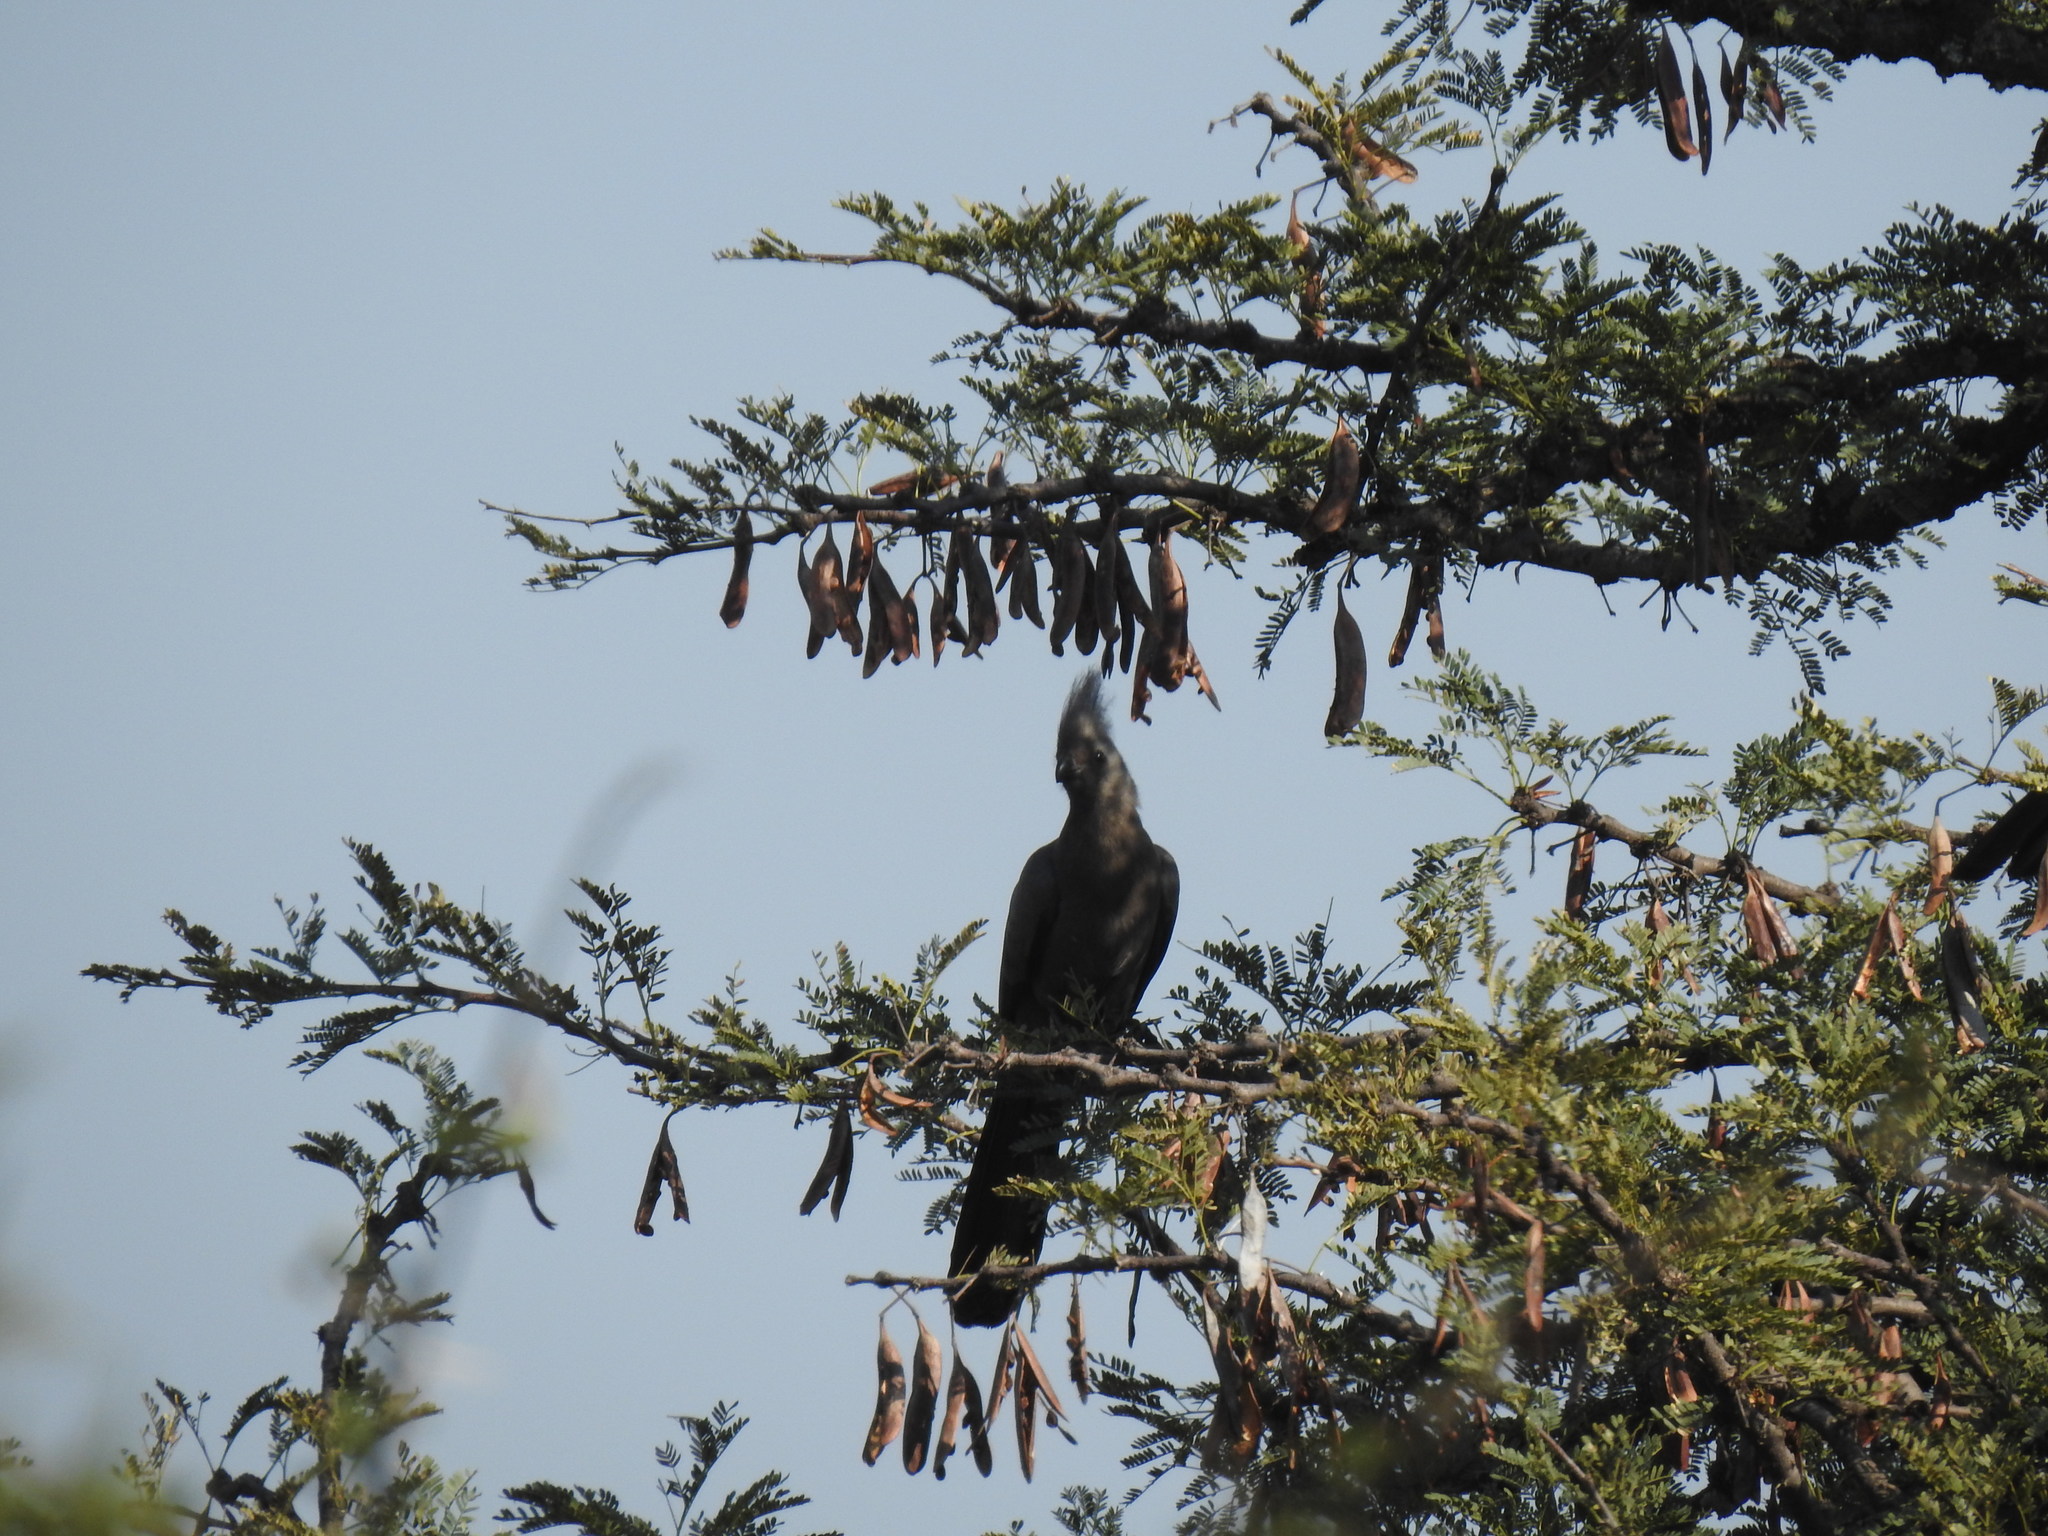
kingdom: Animalia
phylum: Chordata
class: Aves
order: Musophagiformes
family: Musophagidae
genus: Corythaixoides
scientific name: Corythaixoides concolor
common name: Grey go-away-bird
